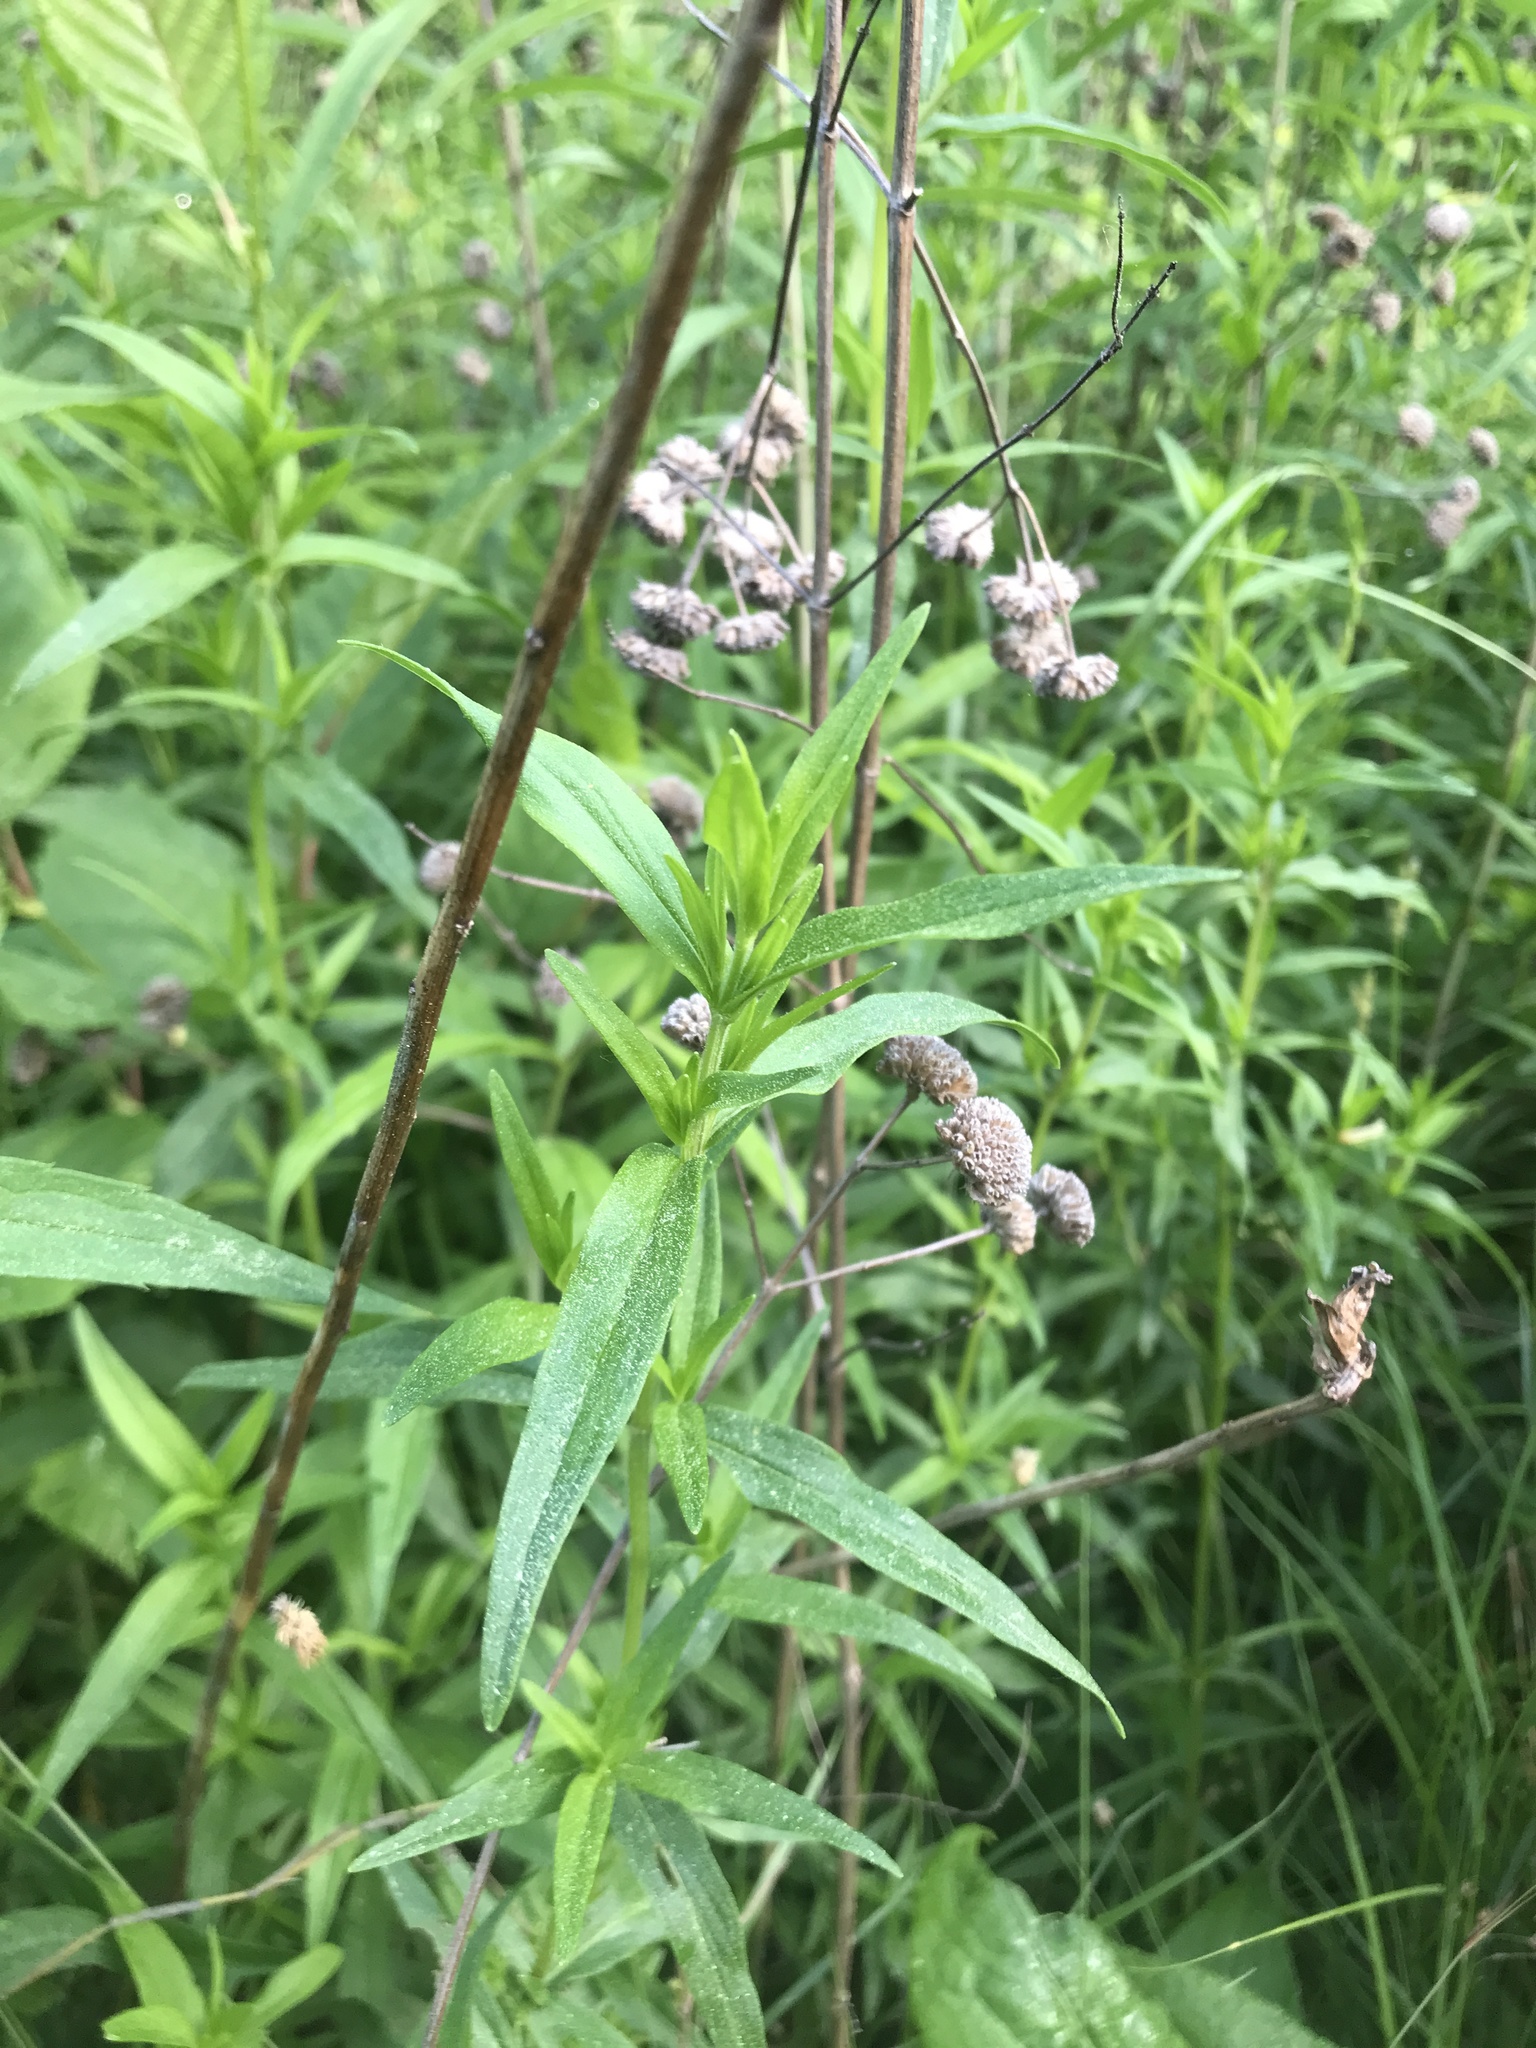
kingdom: Plantae
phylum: Tracheophyta
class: Magnoliopsida
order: Lamiales
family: Lamiaceae
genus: Pycnanthemum
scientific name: Pycnanthemum virginianum
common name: Virginia mountain-mint
